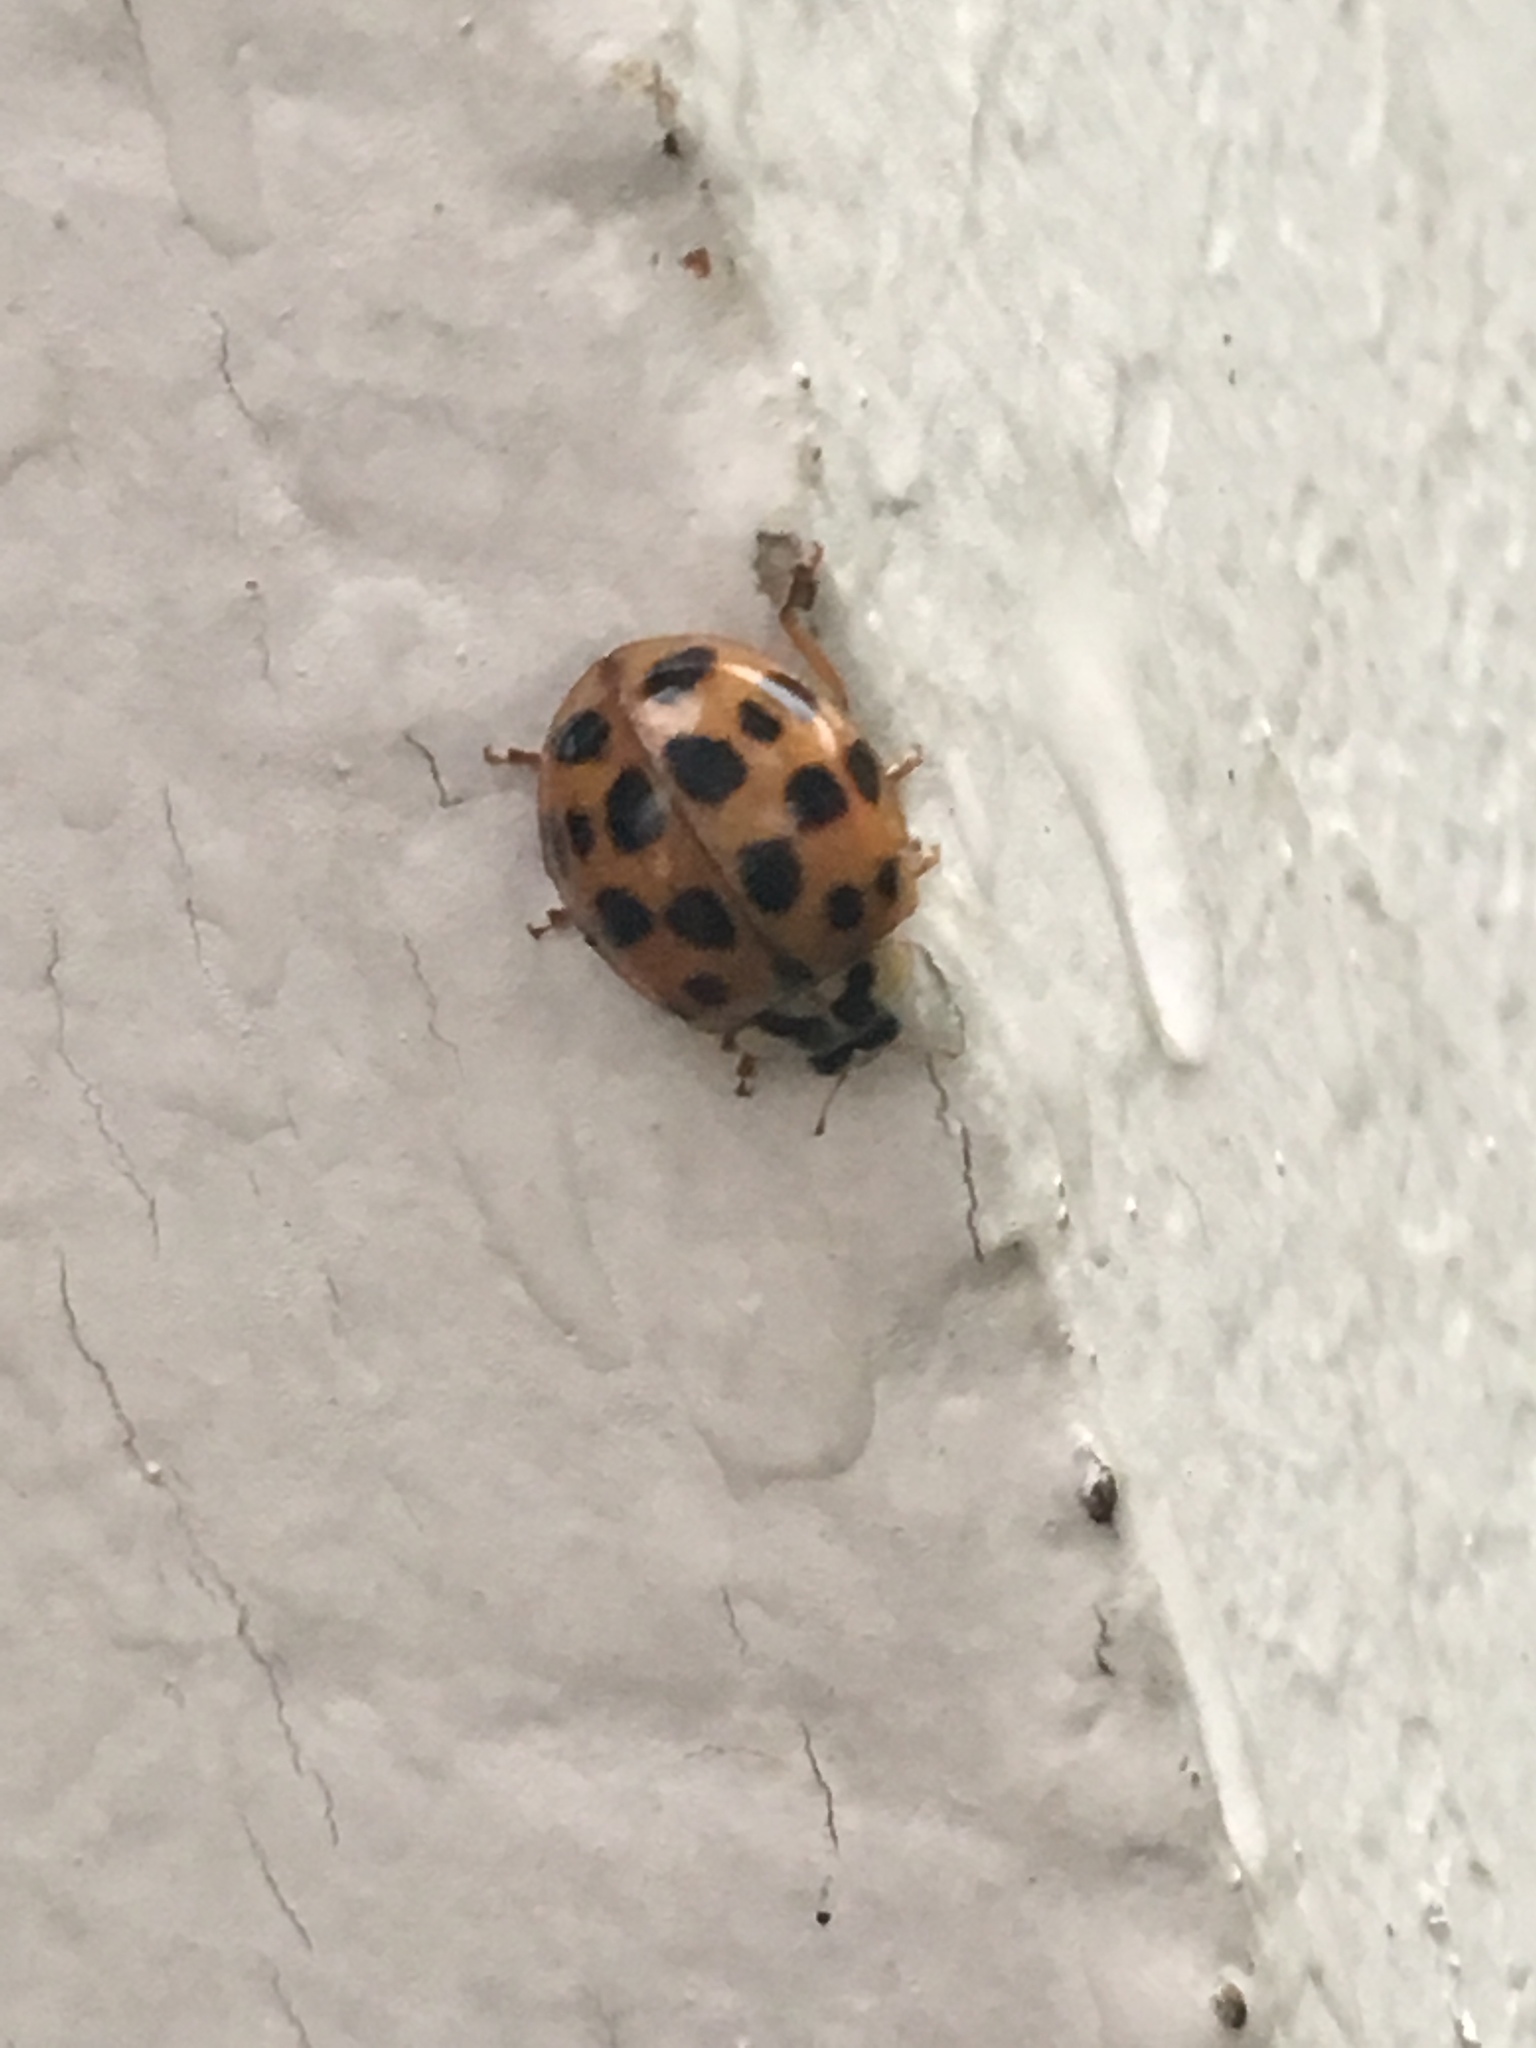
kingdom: Animalia
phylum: Arthropoda
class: Insecta
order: Coleoptera
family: Coccinellidae
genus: Harmonia
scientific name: Harmonia axyridis
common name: Harlequin ladybird
